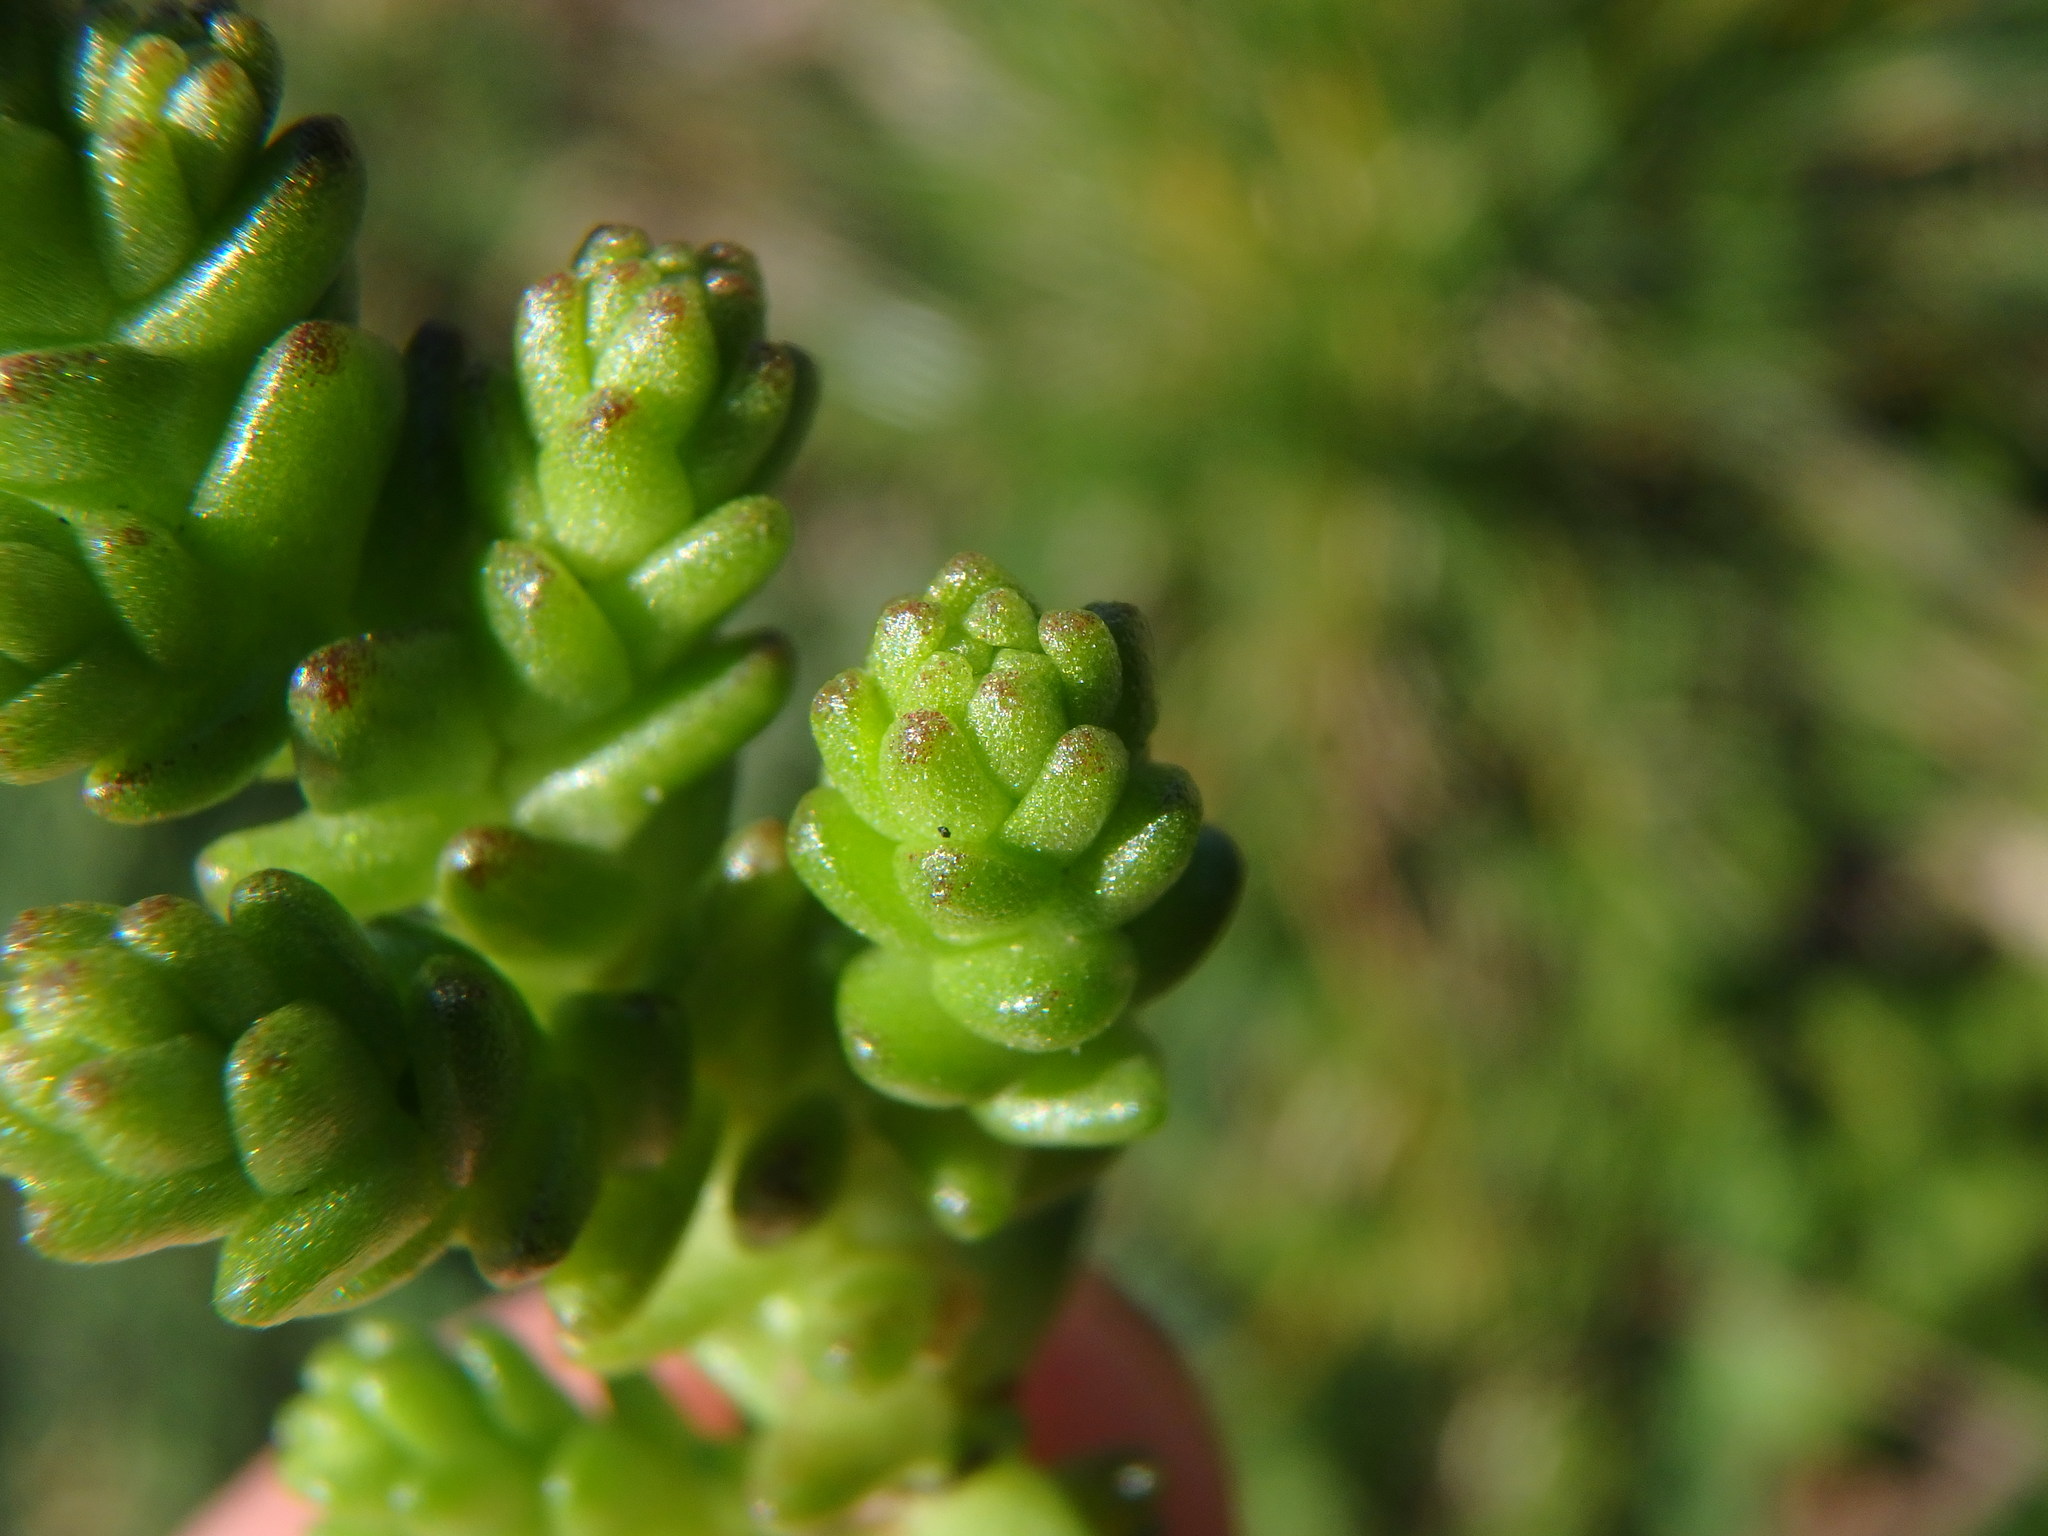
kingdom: Plantae
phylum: Tracheophyta
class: Magnoliopsida
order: Saxifragales
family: Crassulaceae
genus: Sedum
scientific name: Sedum acre
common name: Biting stonecrop
